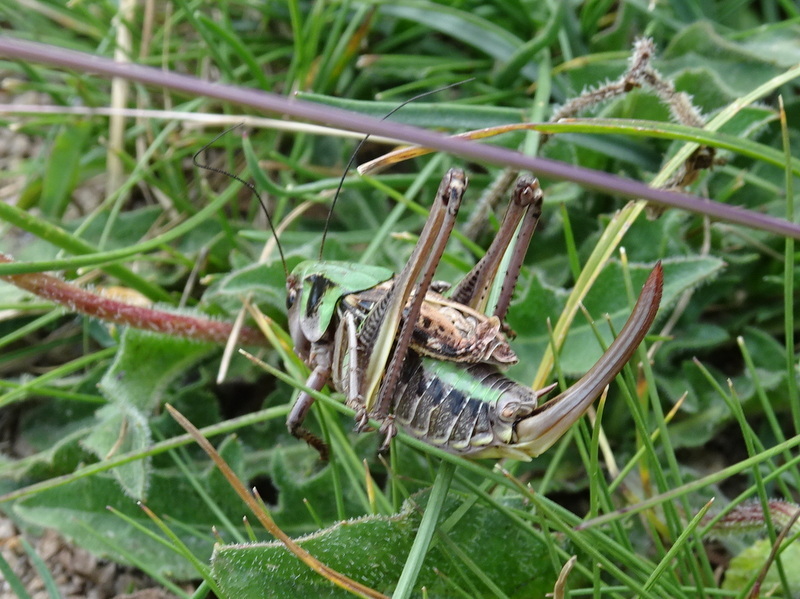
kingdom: Animalia
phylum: Arthropoda
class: Insecta
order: Orthoptera
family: Tettigoniidae
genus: Decticus
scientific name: Decticus verrucivorus
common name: Wart-biter
